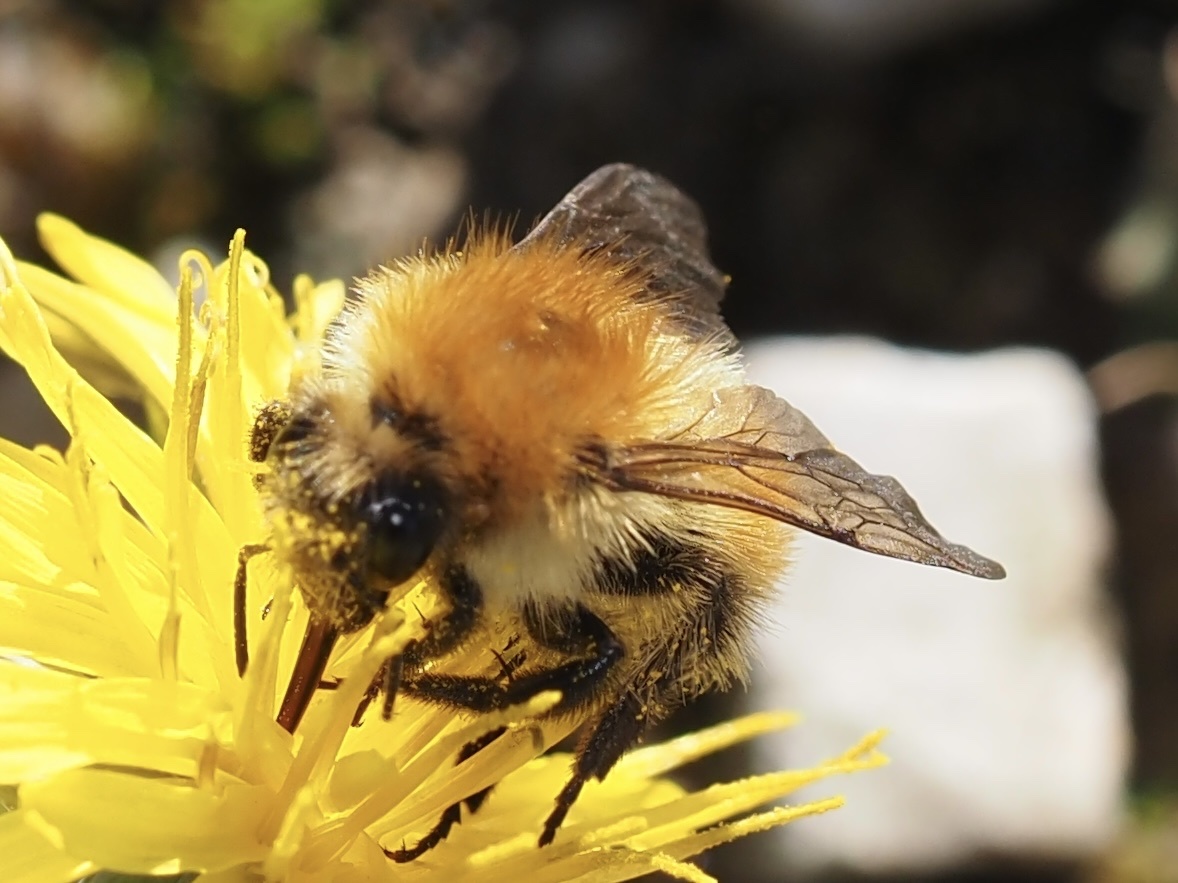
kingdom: Animalia
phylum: Arthropoda
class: Insecta
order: Hymenoptera
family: Apidae
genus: Bombus
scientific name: Bombus pascuorum
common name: Common carder bee
